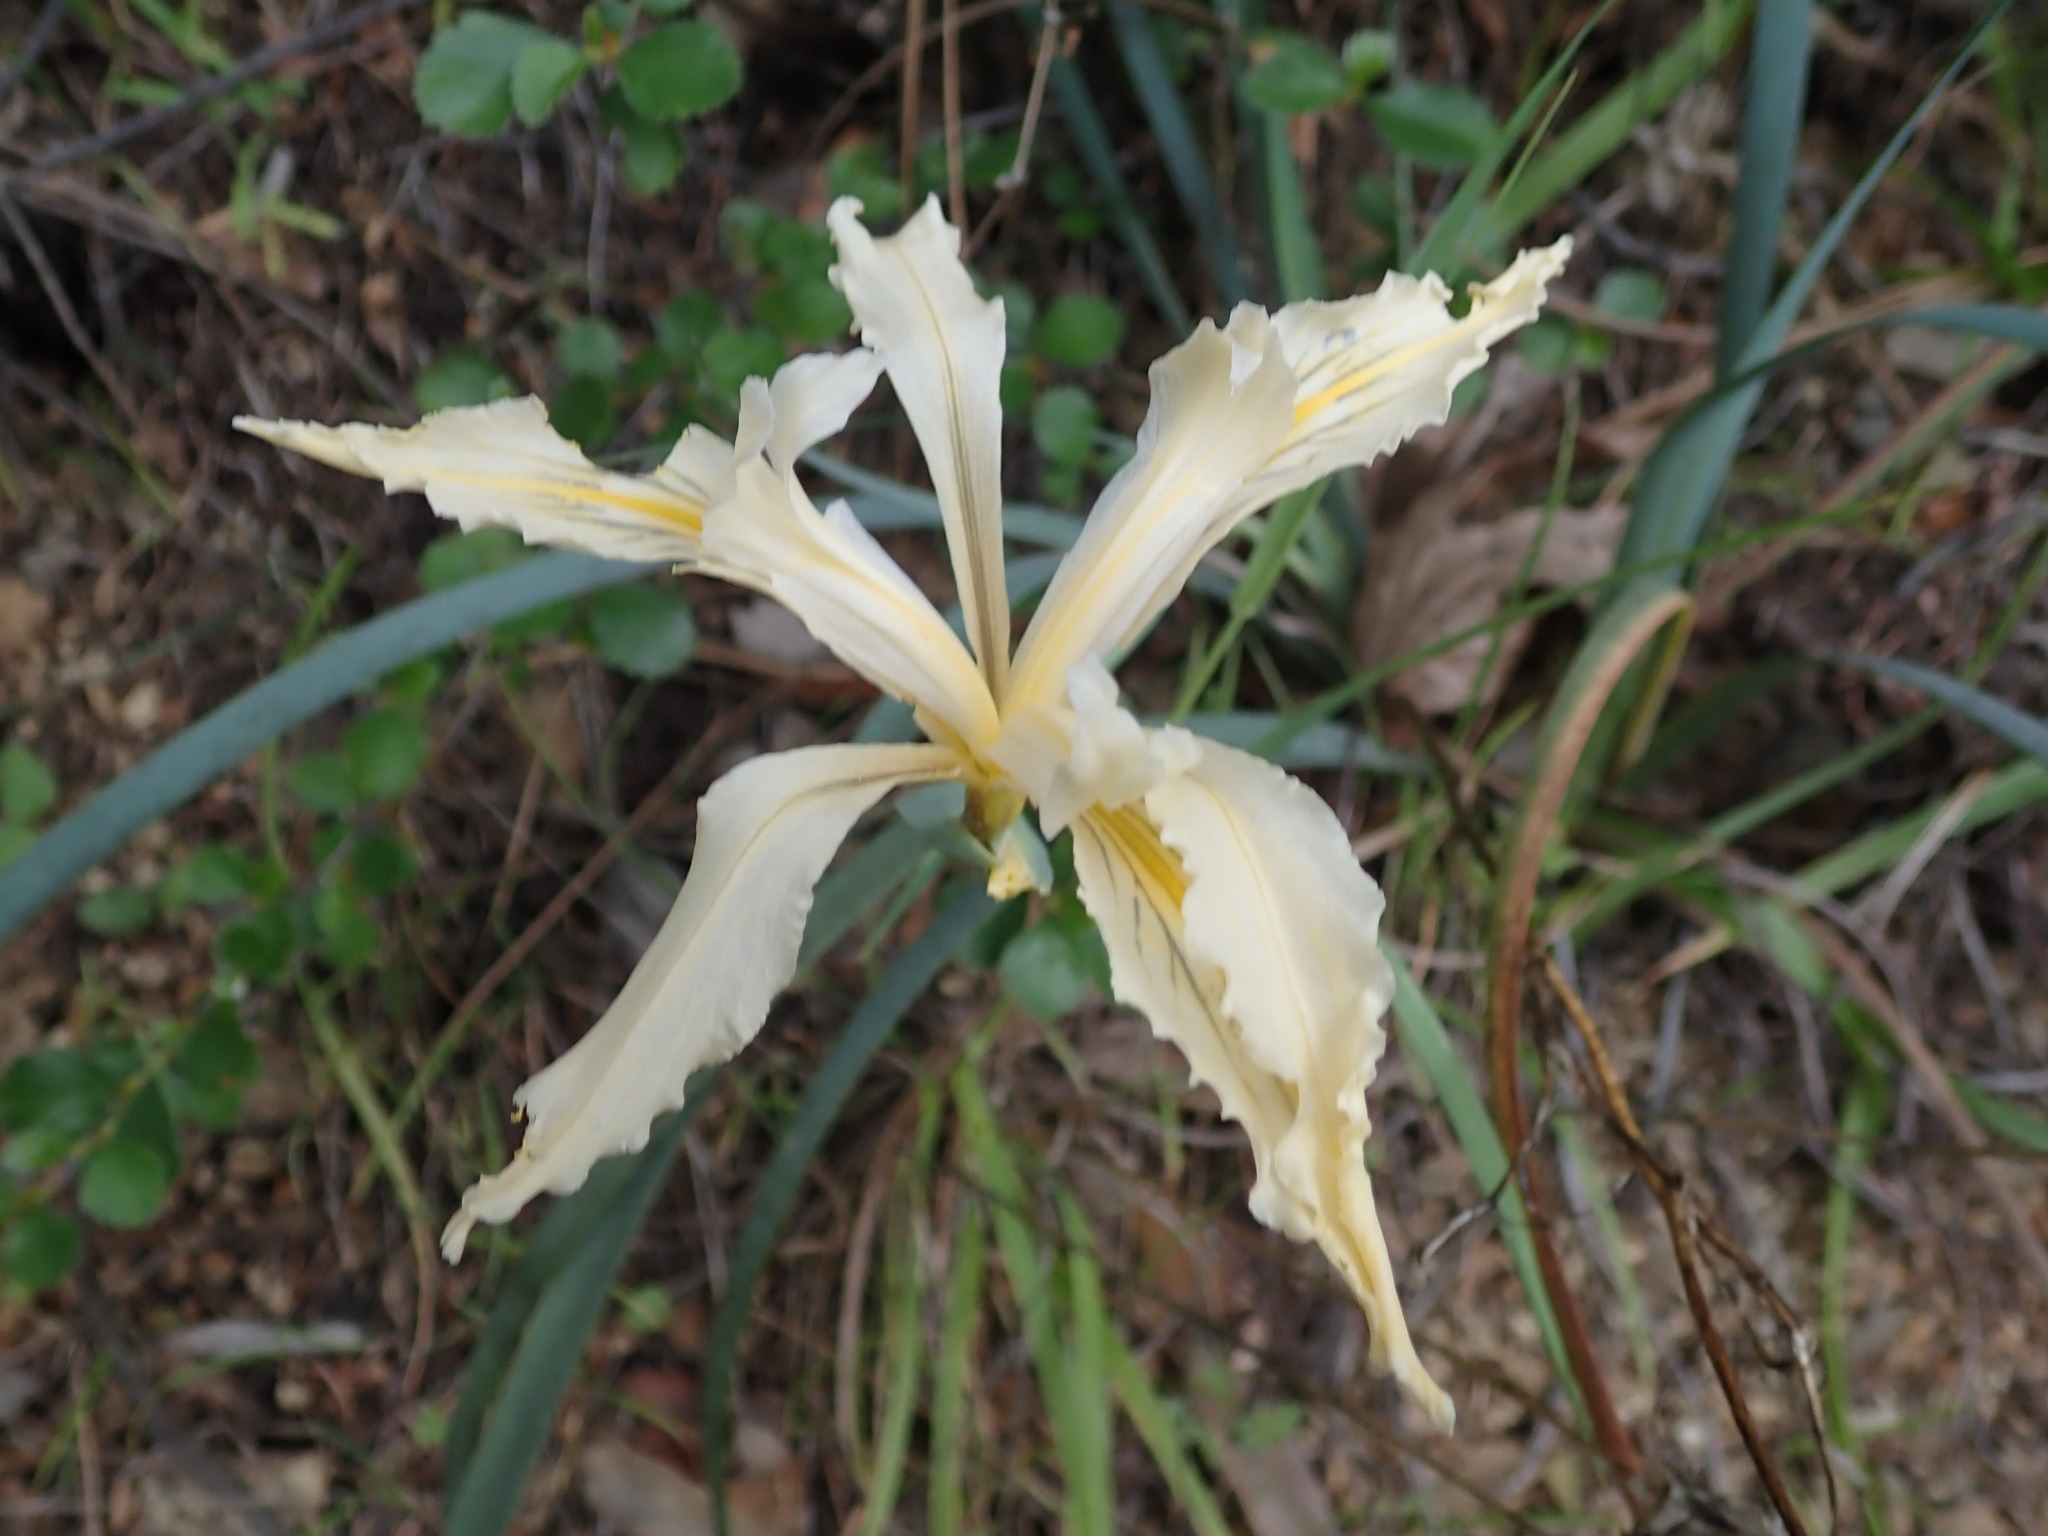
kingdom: Plantae
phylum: Tracheophyta
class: Liliopsida
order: Asparagales
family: Iridaceae
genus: Iris
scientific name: Iris fernaldii
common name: Fernald's iris
